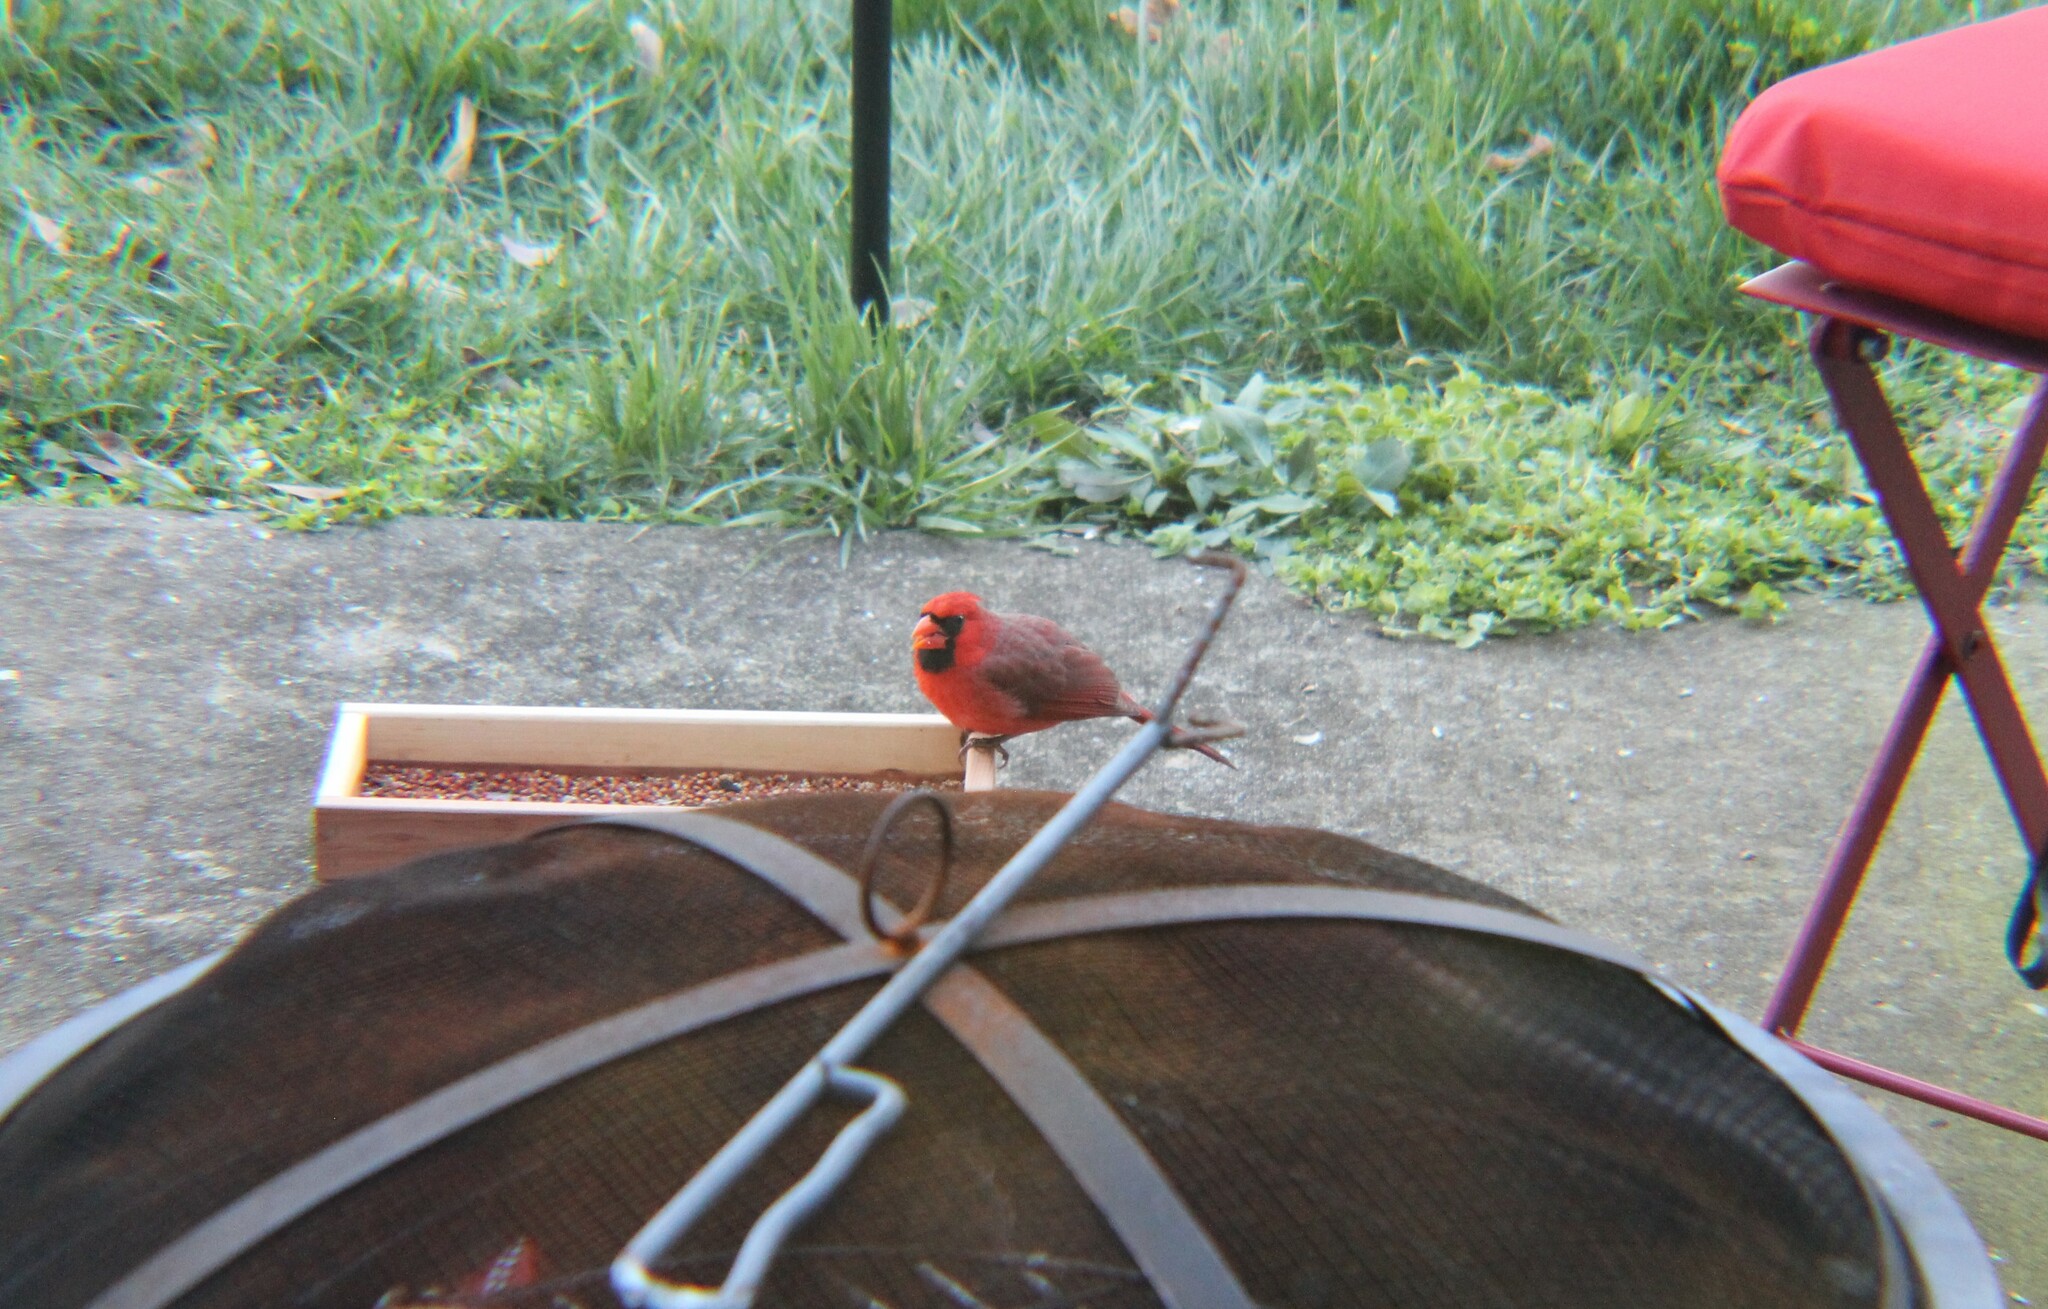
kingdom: Animalia
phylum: Chordata
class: Aves
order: Passeriformes
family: Cardinalidae
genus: Cardinalis
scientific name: Cardinalis cardinalis
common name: Northern cardinal
